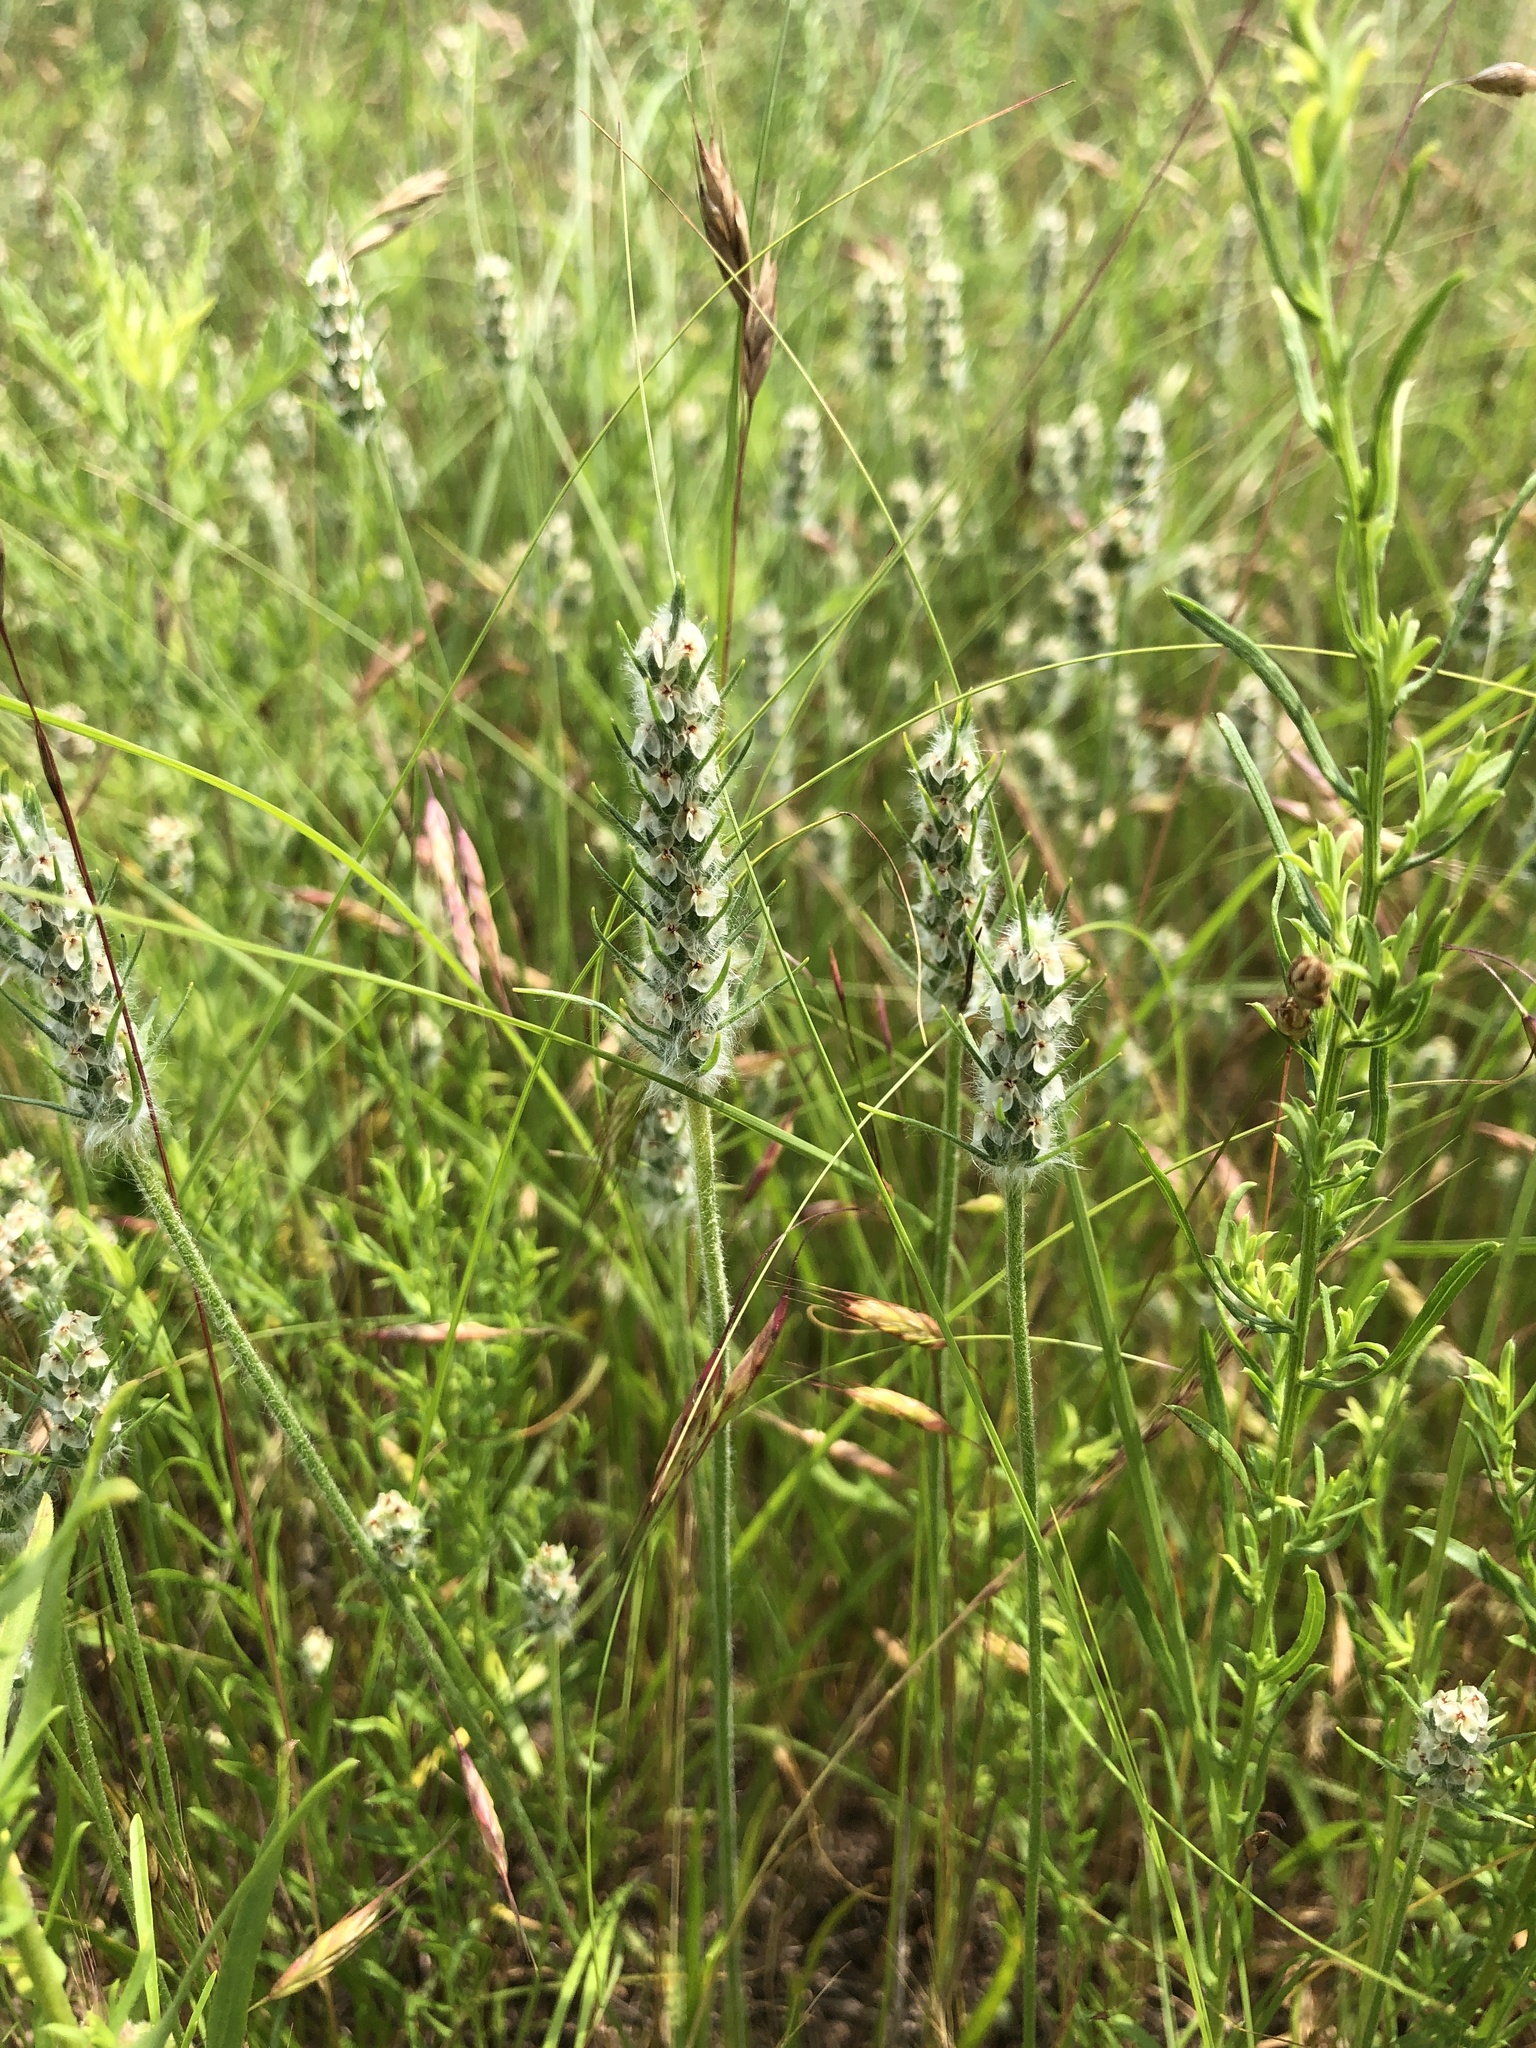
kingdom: Plantae
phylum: Tracheophyta
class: Magnoliopsida
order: Lamiales
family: Plantaginaceae
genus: Plantago
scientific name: Plantago aristata
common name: Bracted plantain
